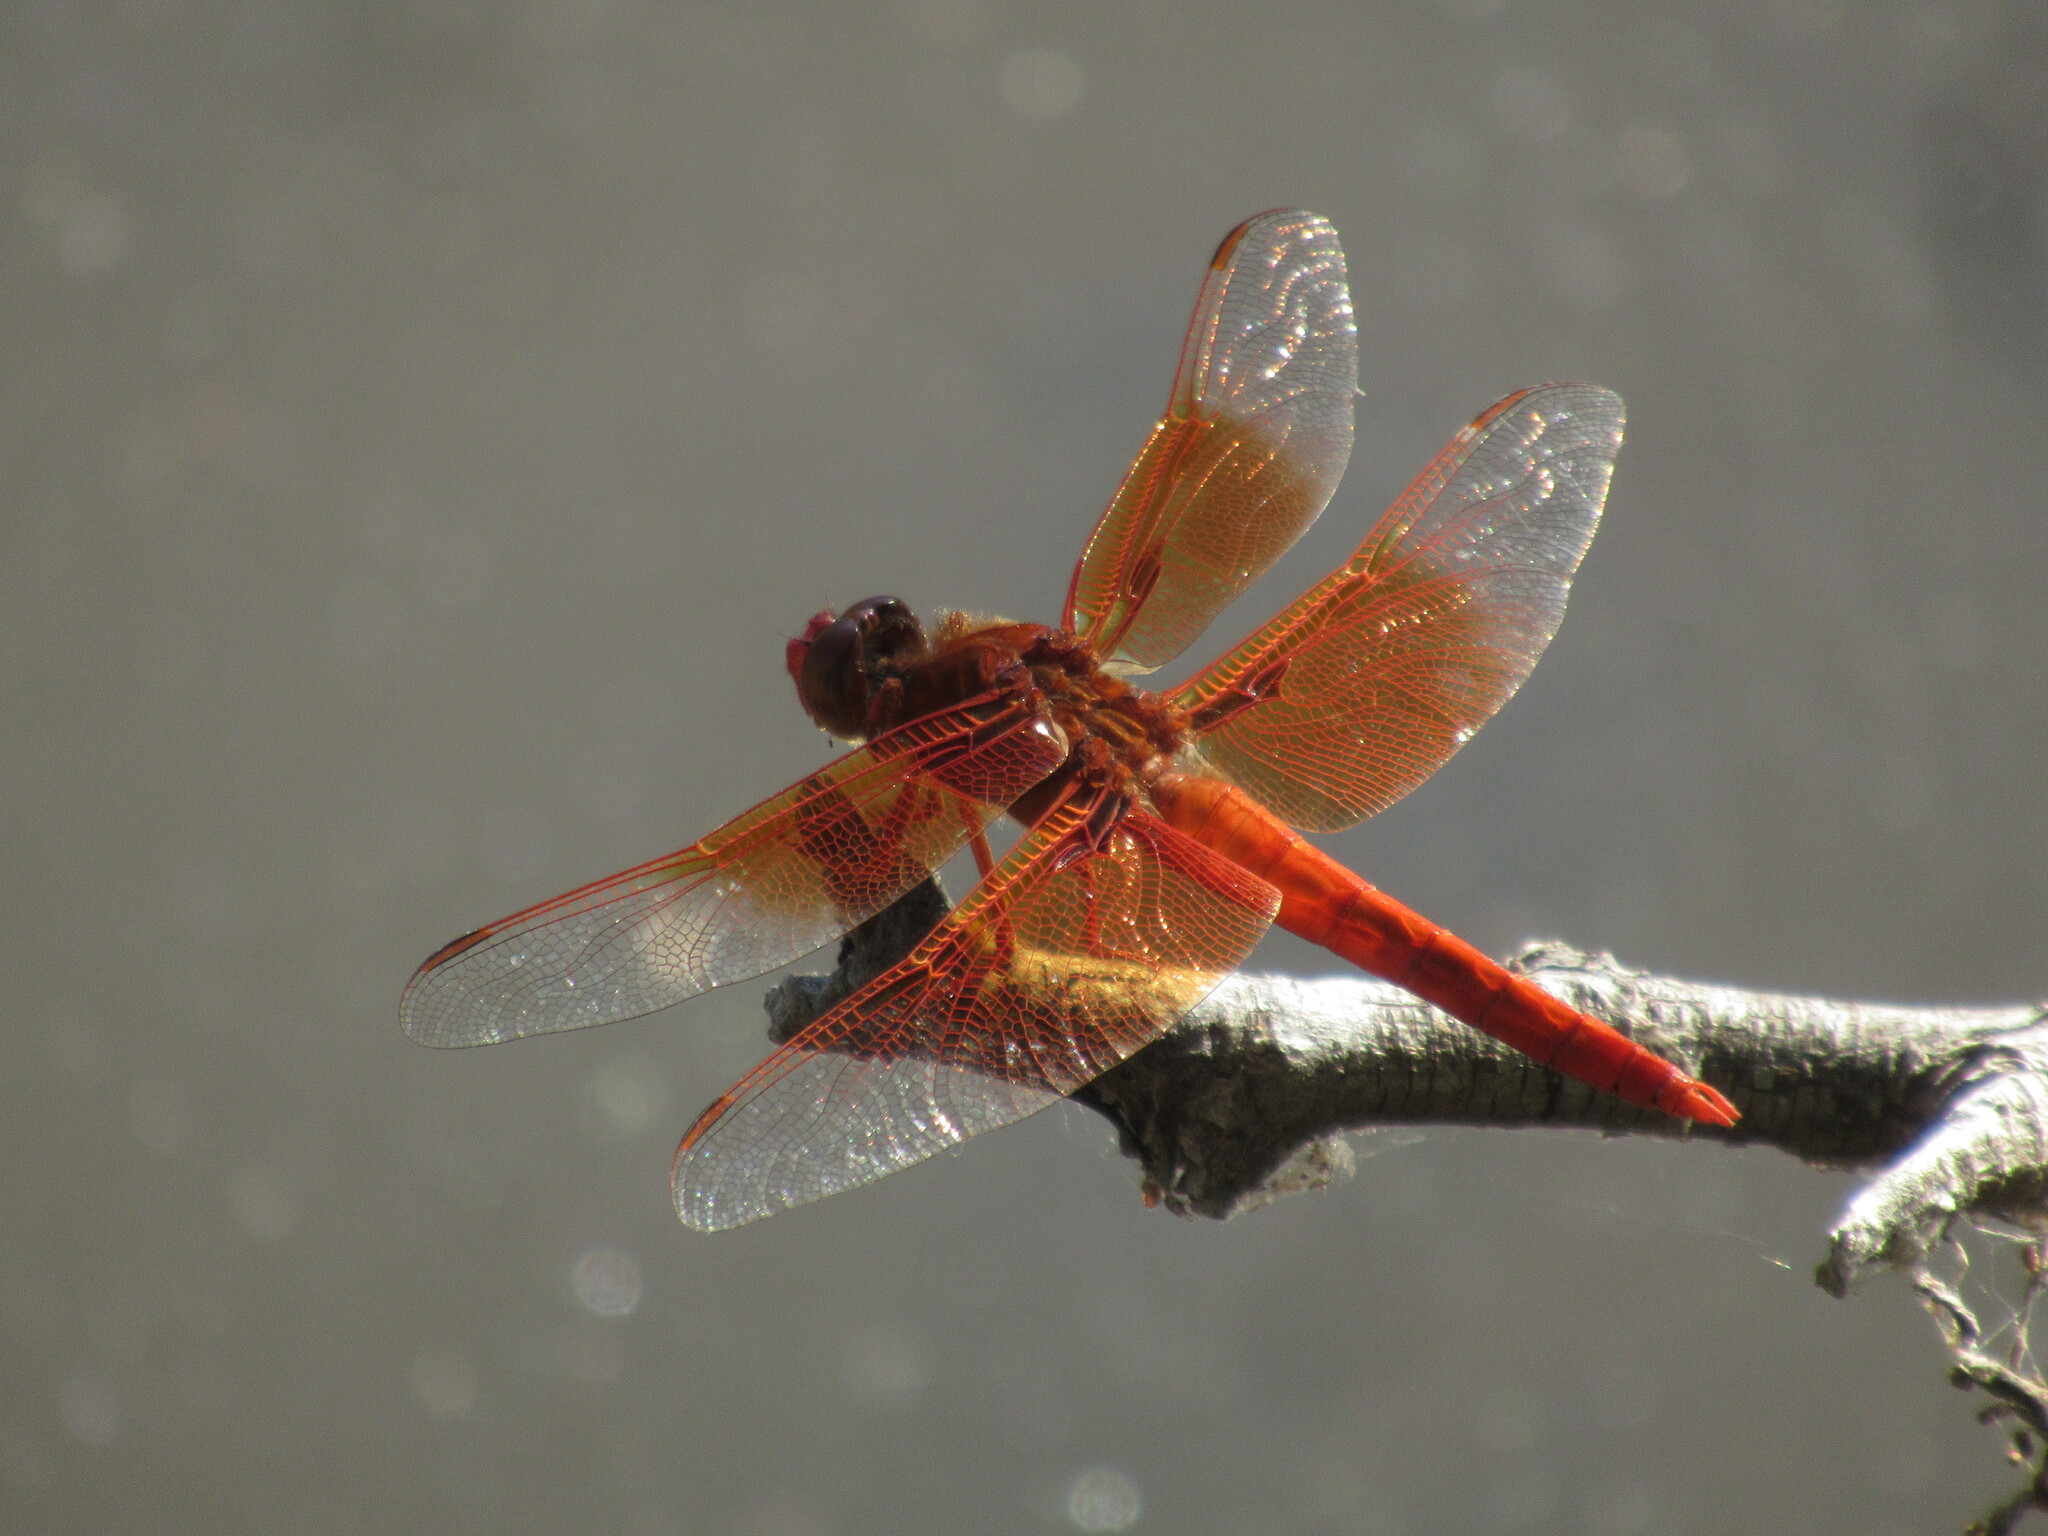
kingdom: Animalia
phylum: Arthropoda
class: Insecta
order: Odonata
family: Libellulidae
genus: Libellula
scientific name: Libellula saturata
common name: Flame skimmer
